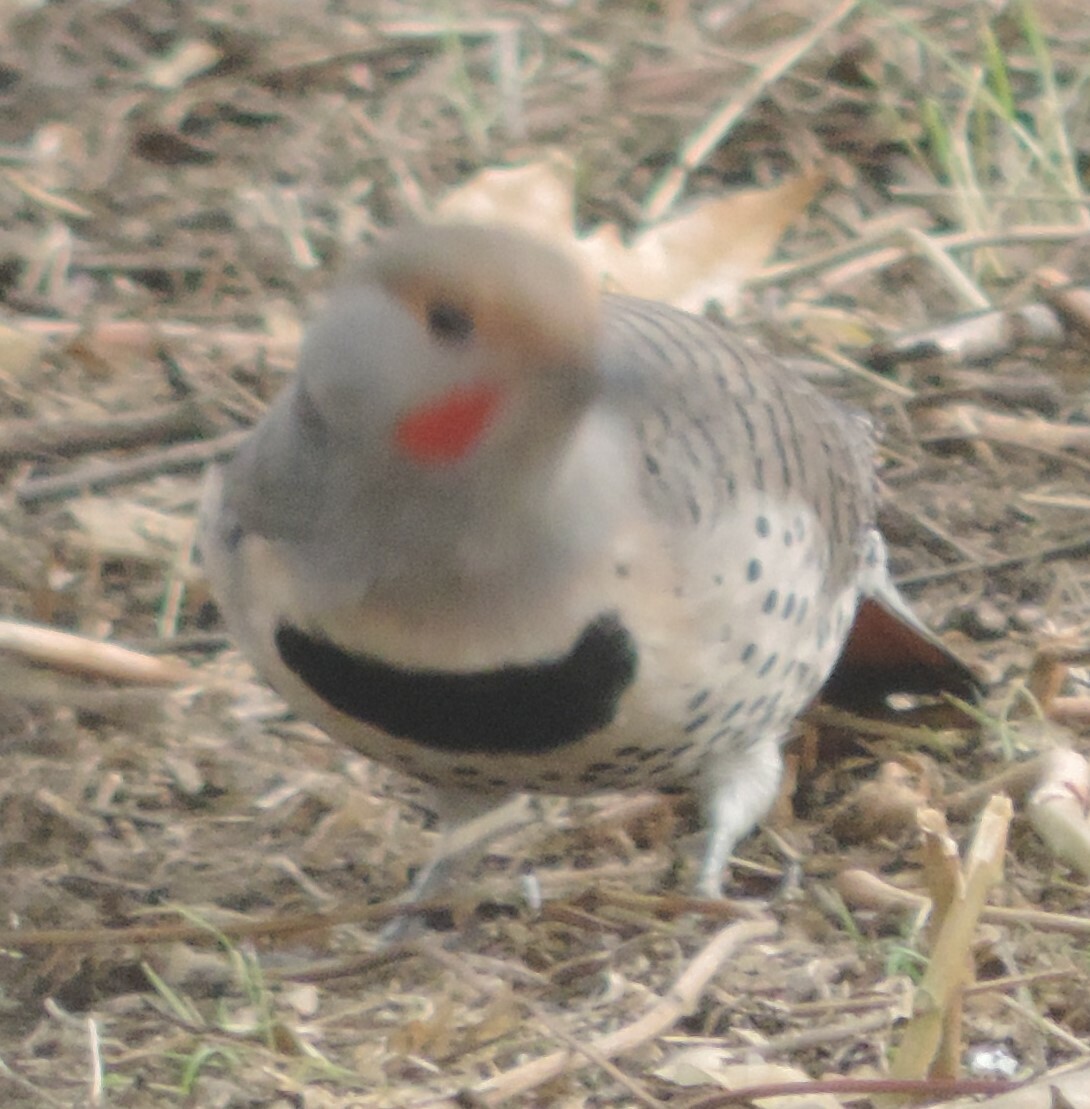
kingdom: Animalia
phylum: Chordata
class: Aves
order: Piciformes
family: Picidae
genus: Colaptes
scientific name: Colaptes auratus
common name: Northern flicker
